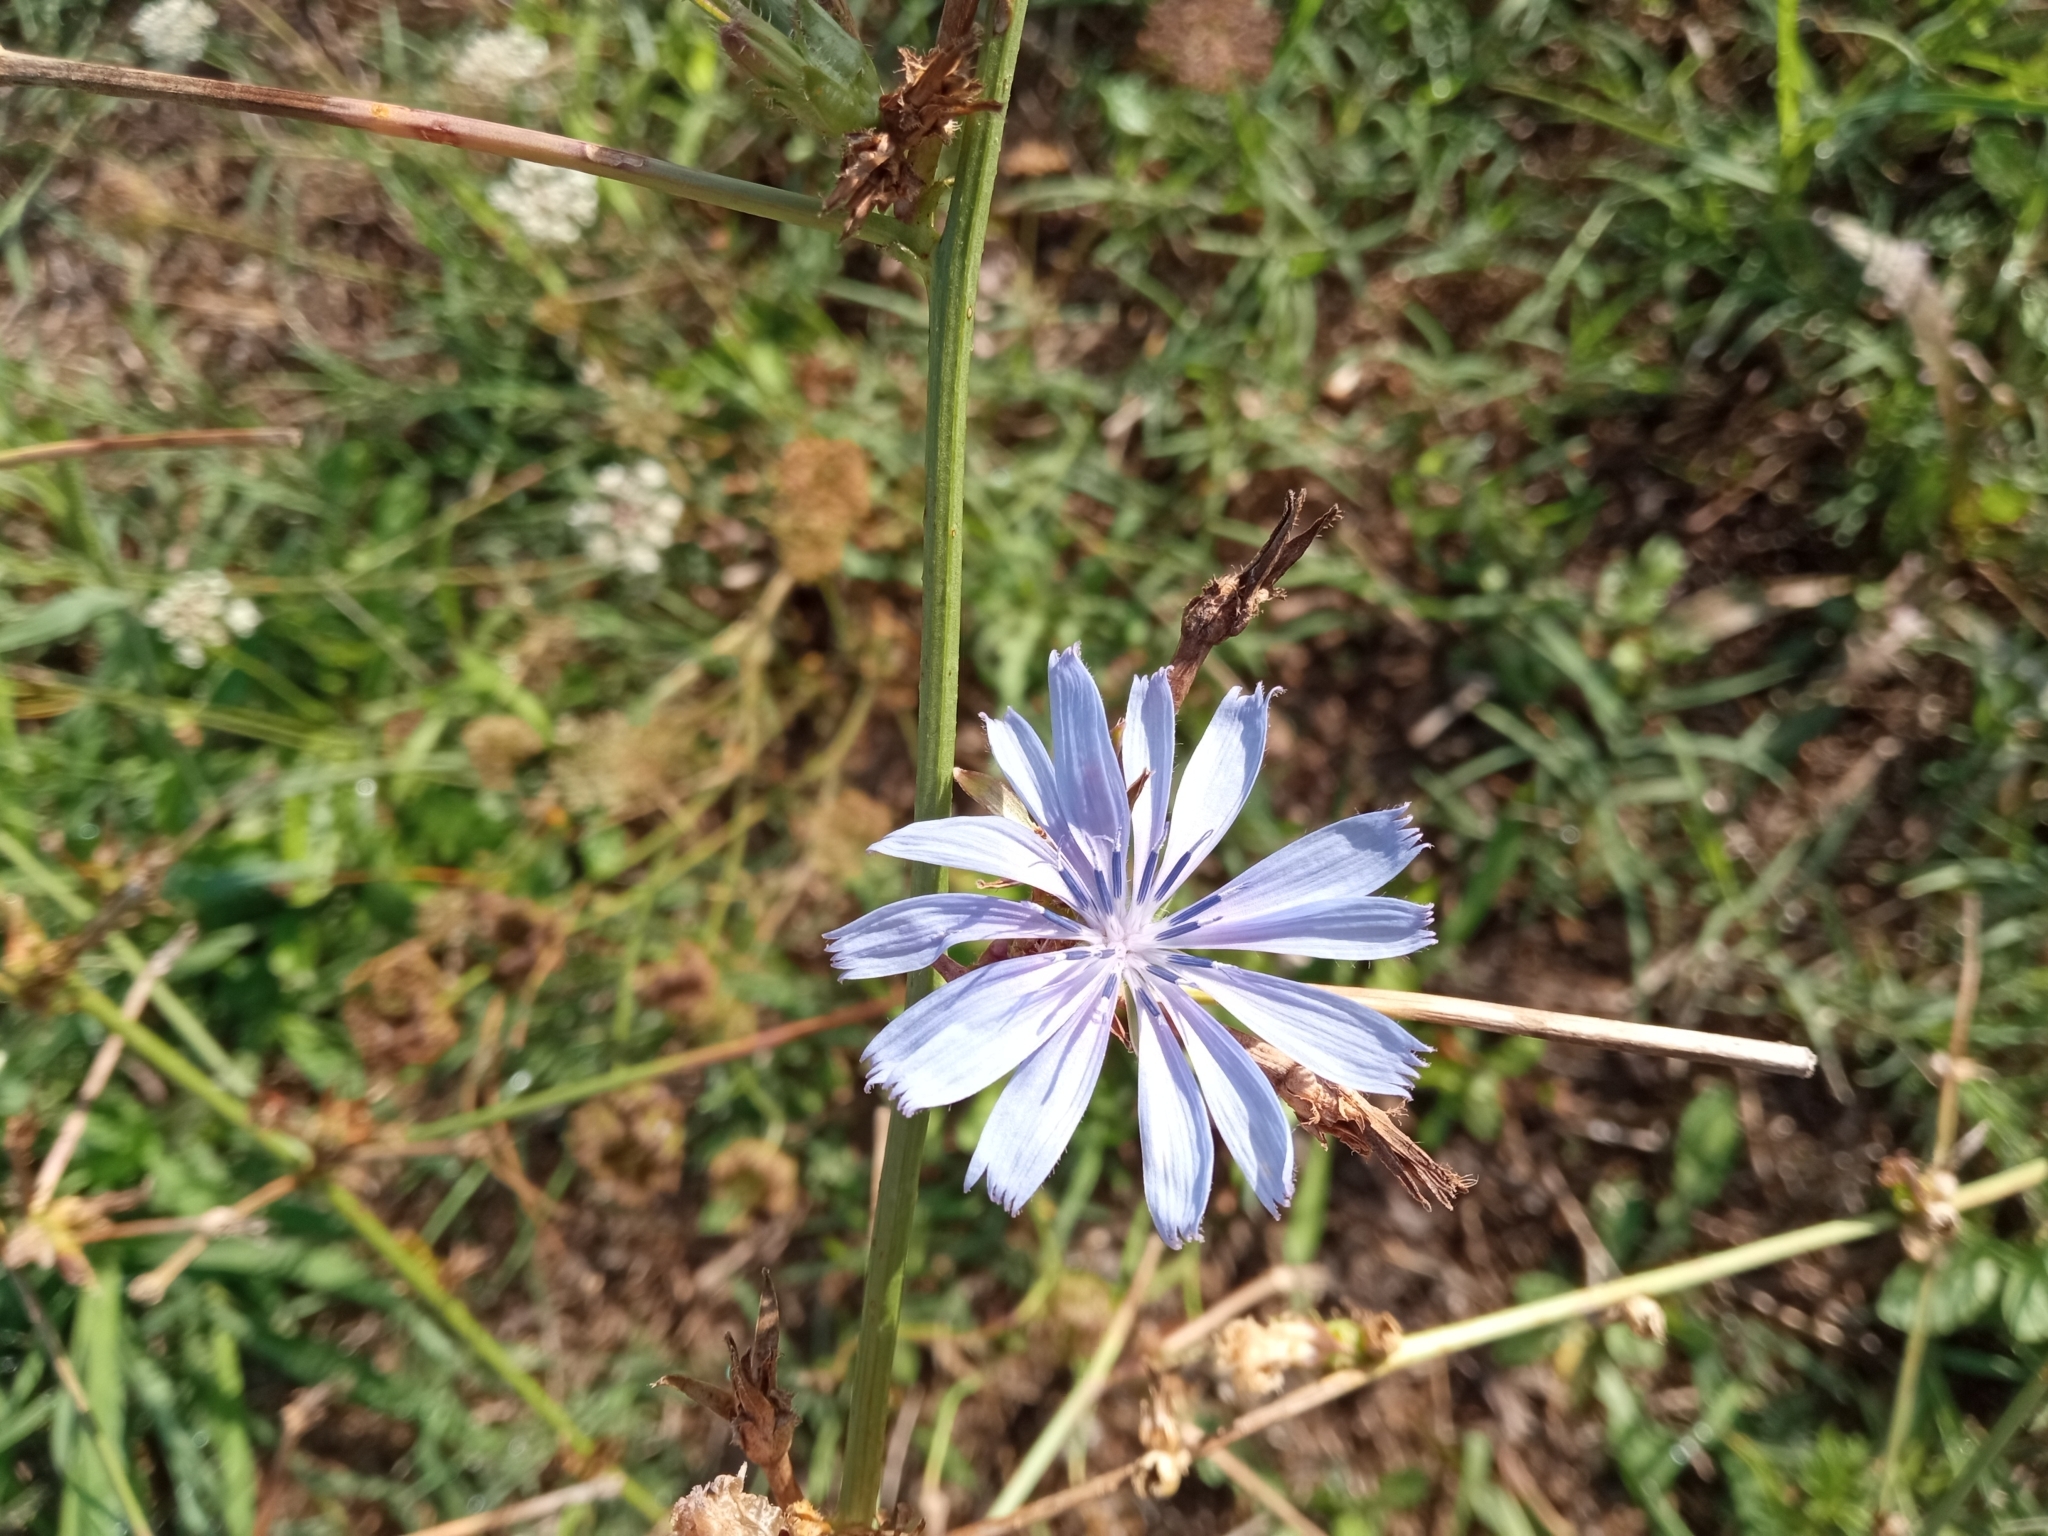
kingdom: Plantae
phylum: Tracheophyta
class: Magnoliopsida
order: Asterales
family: Asteraceae
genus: Cichorium
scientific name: Cichorium intybus
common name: Chicory
